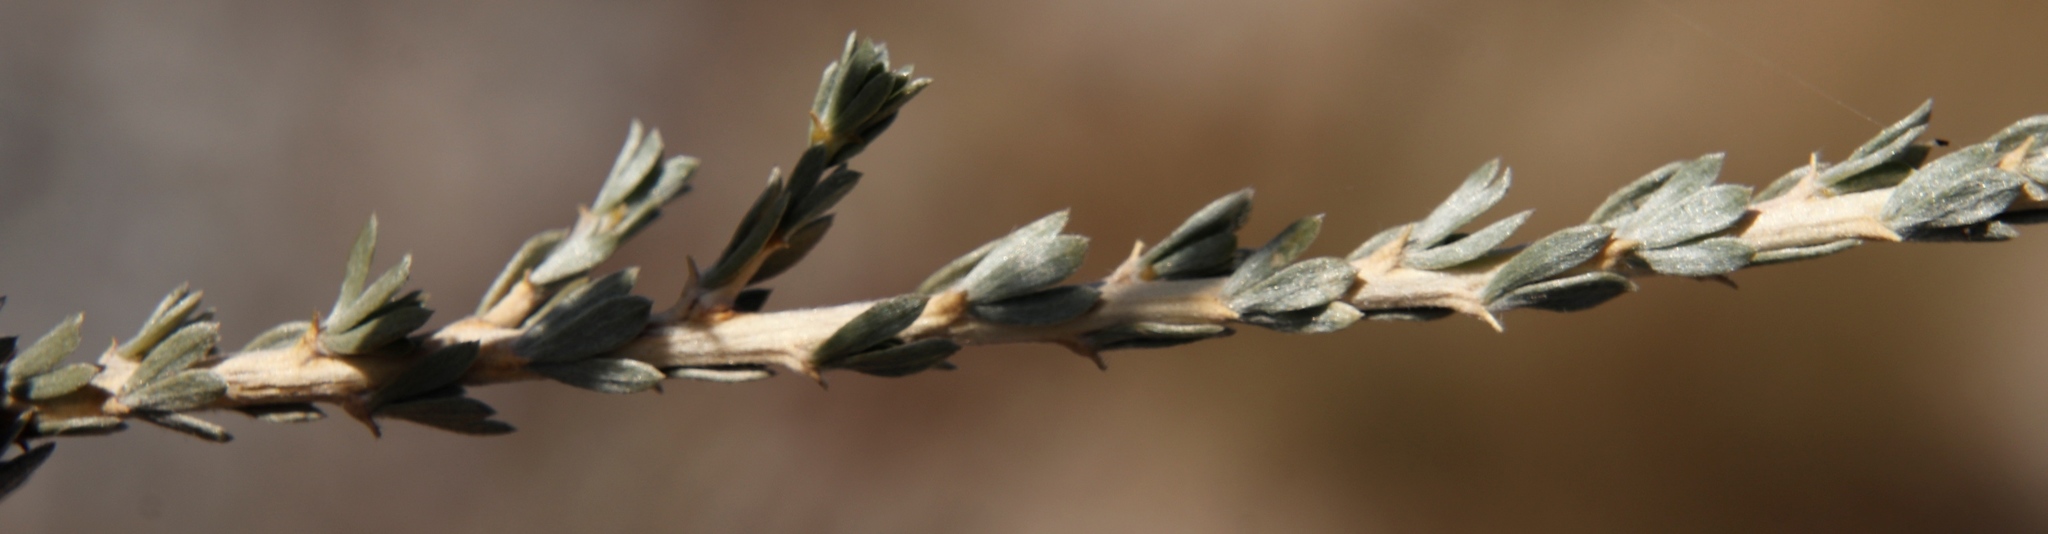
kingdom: Plantae
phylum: Tracheophyta
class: Magnoliopsida
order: Fabales
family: Fabaceae
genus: Aspalathus
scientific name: Aspalathus ternata
